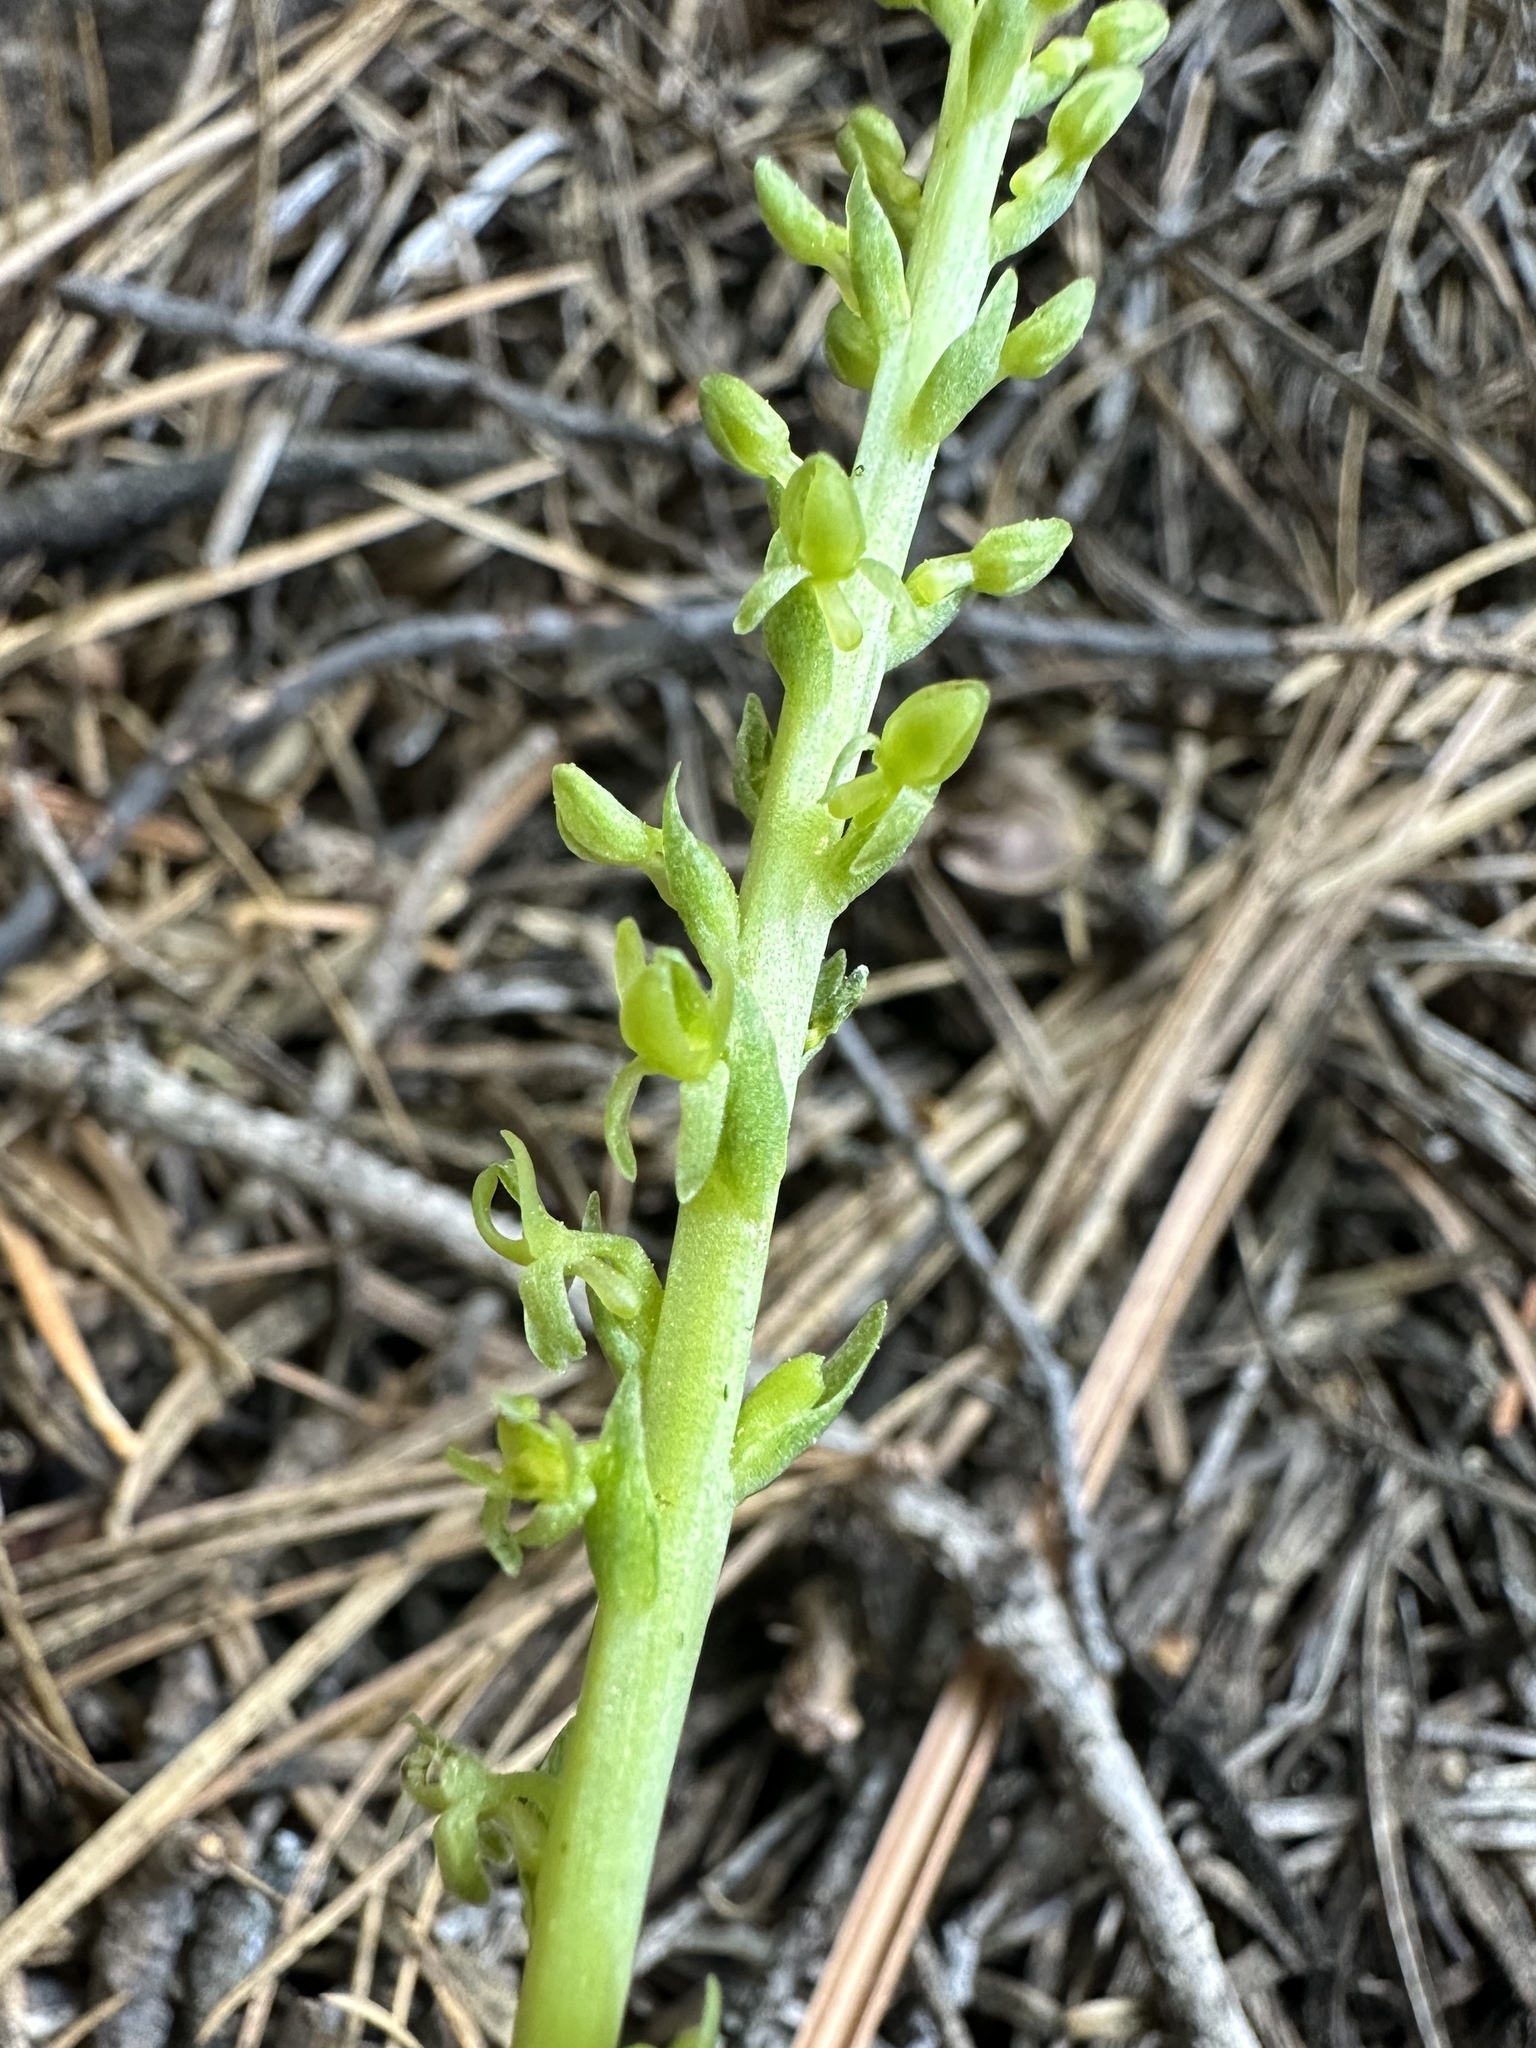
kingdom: Plantae
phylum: Tracheophyta
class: Liliopsida
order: Asparagales
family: Orchidaceae
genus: Platanthera
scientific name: Platanthera colemanii
